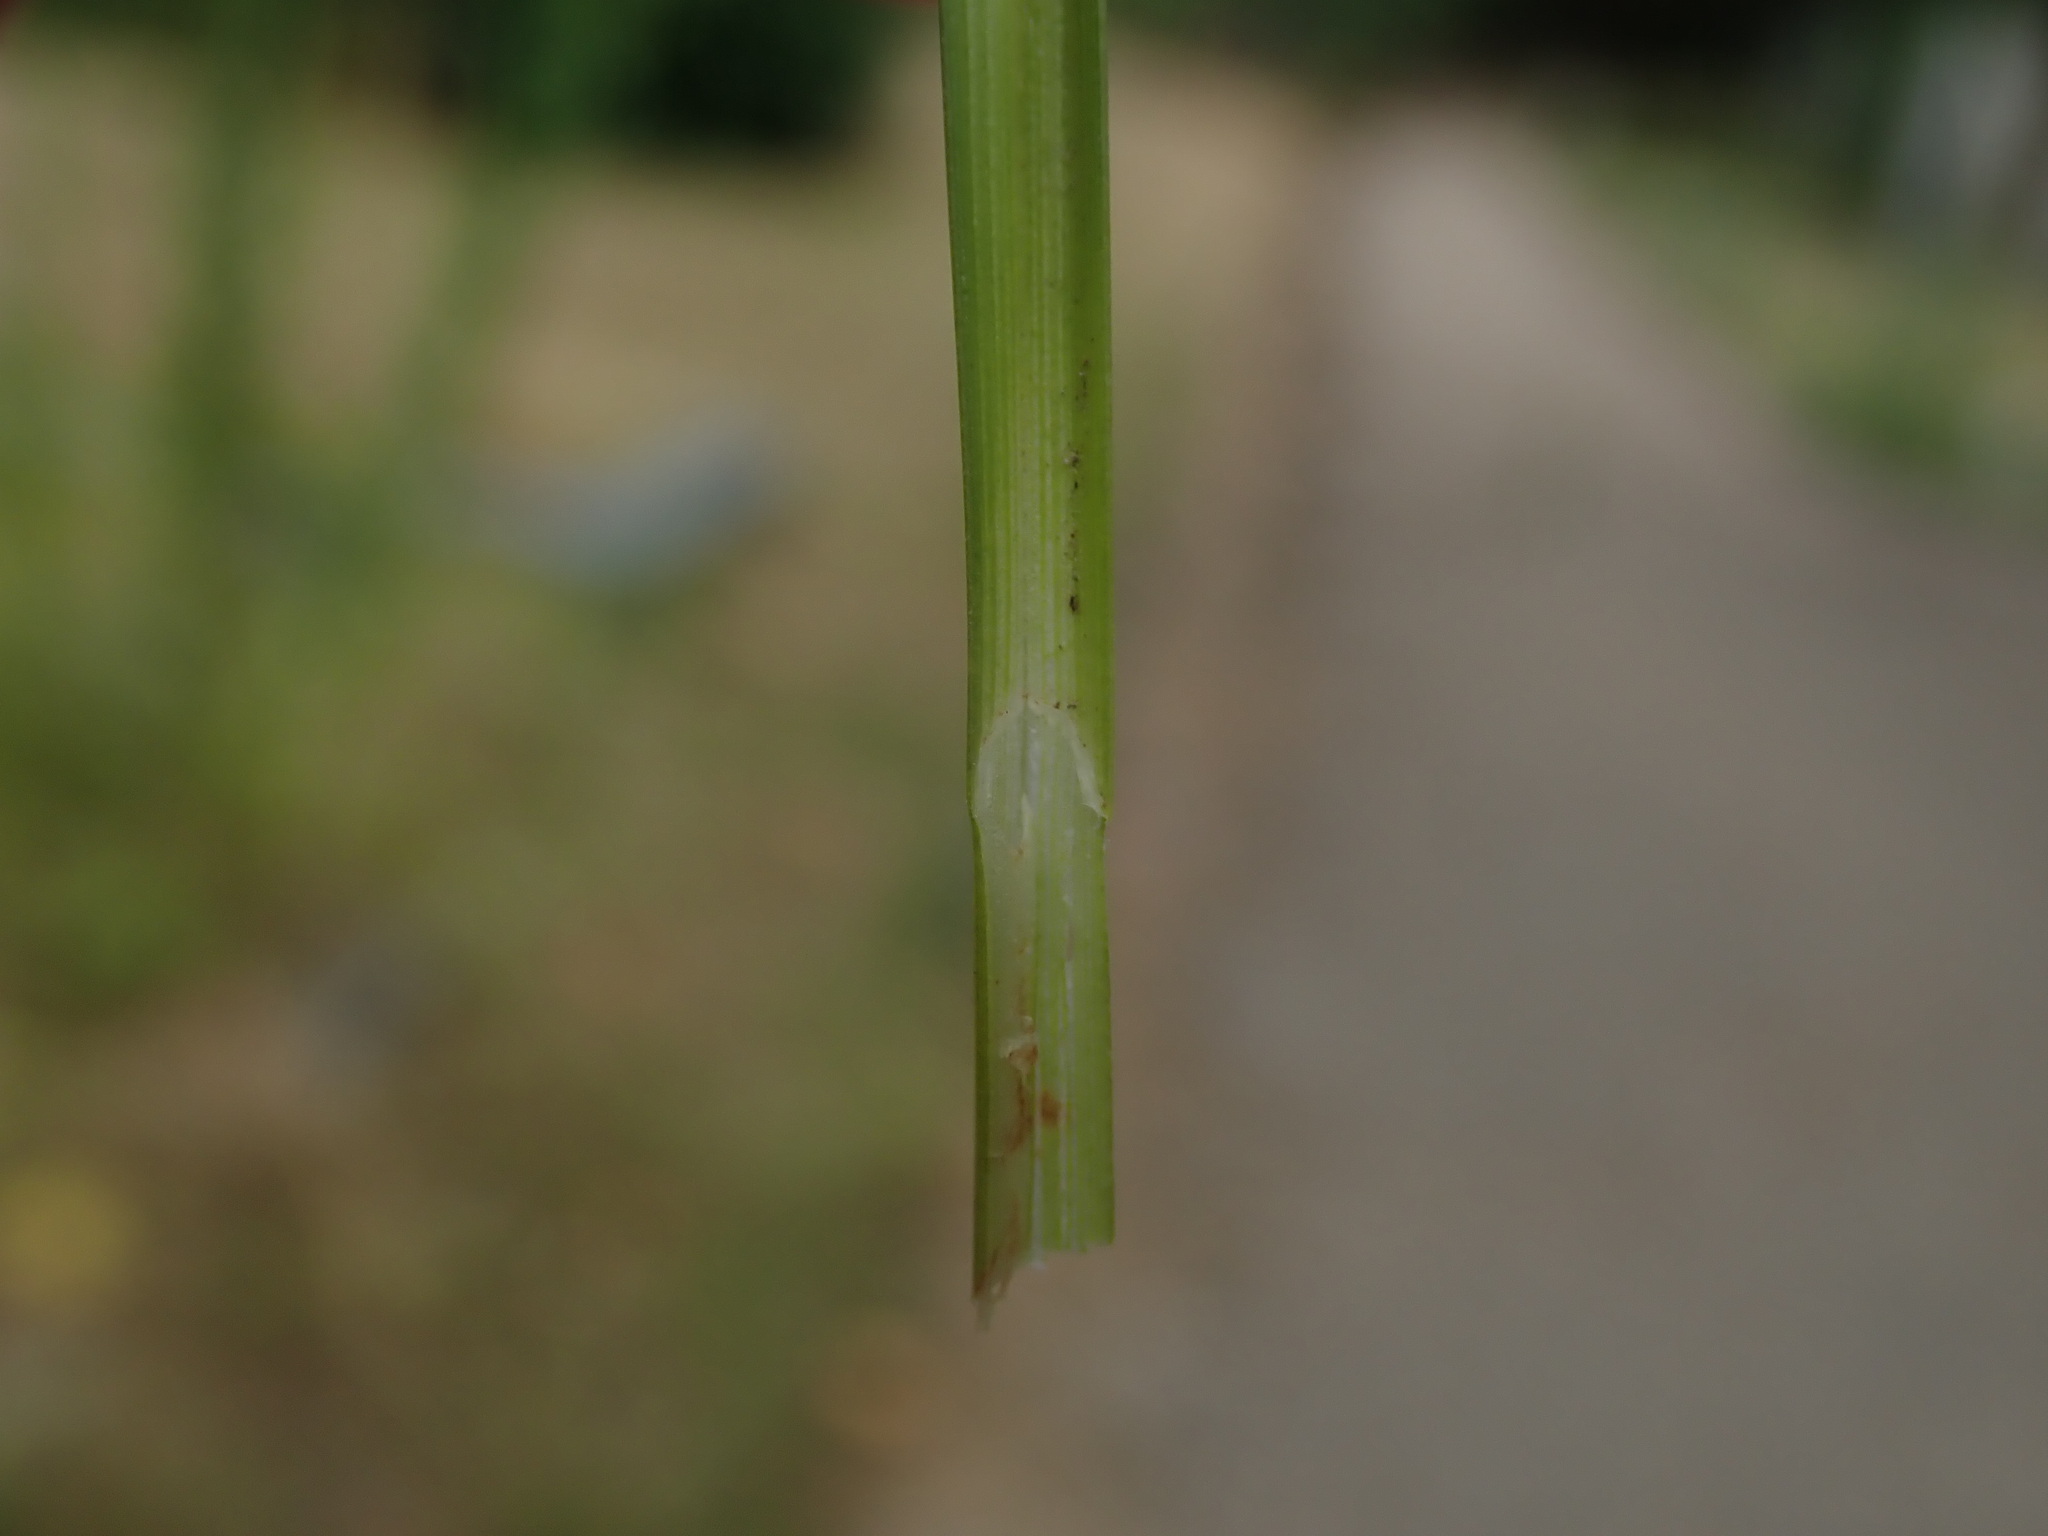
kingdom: Plantae
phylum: Tracheophyta
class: Liliopsida
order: Poales
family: Cyperaceae
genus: Carex
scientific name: Carex divulsa
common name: Grassland sedge
